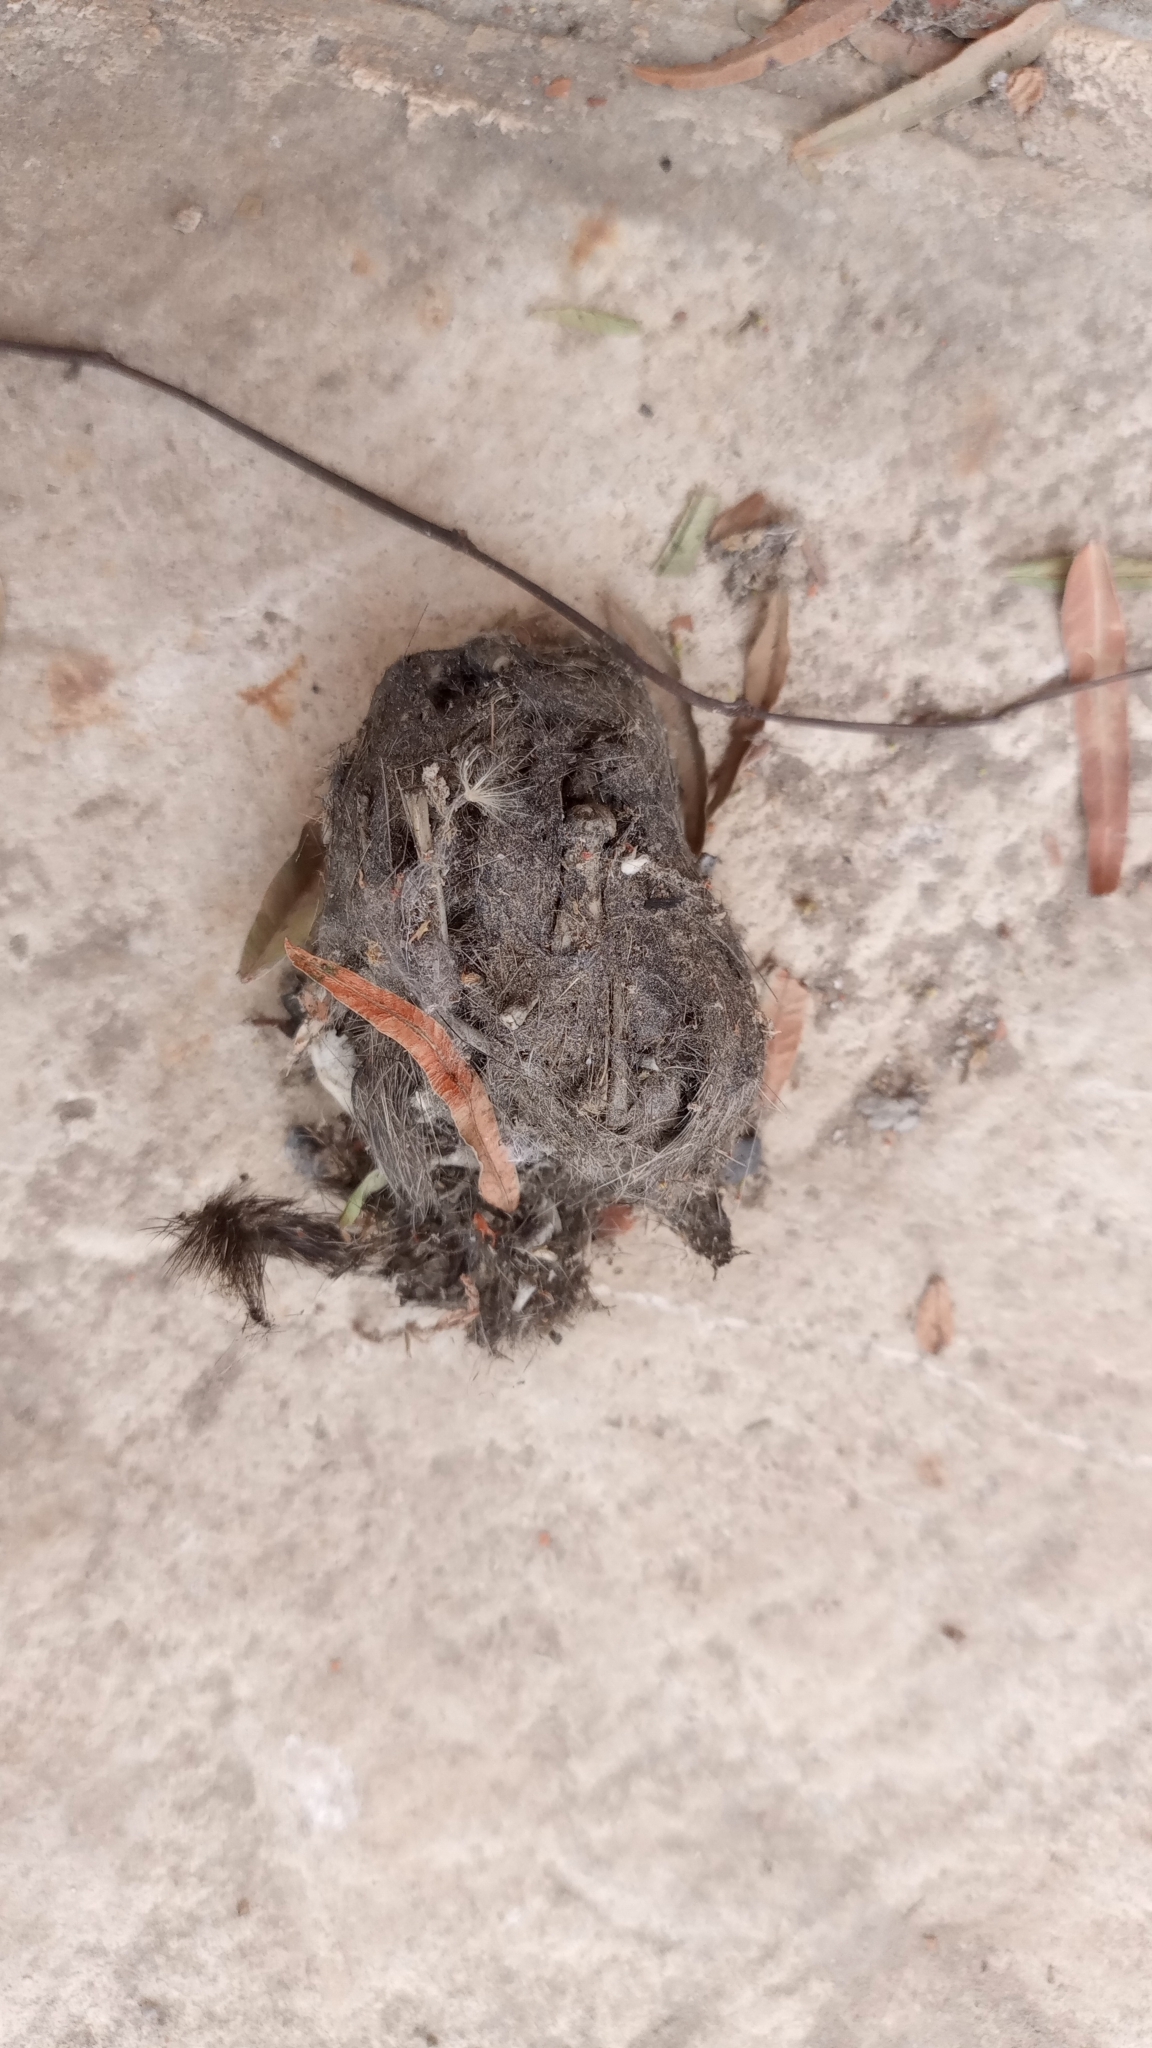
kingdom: Animalia
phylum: Chordata
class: Aves
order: Strigiformes
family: Tytonidae
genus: Tyto
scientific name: Tyto alba
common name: Barn owl
